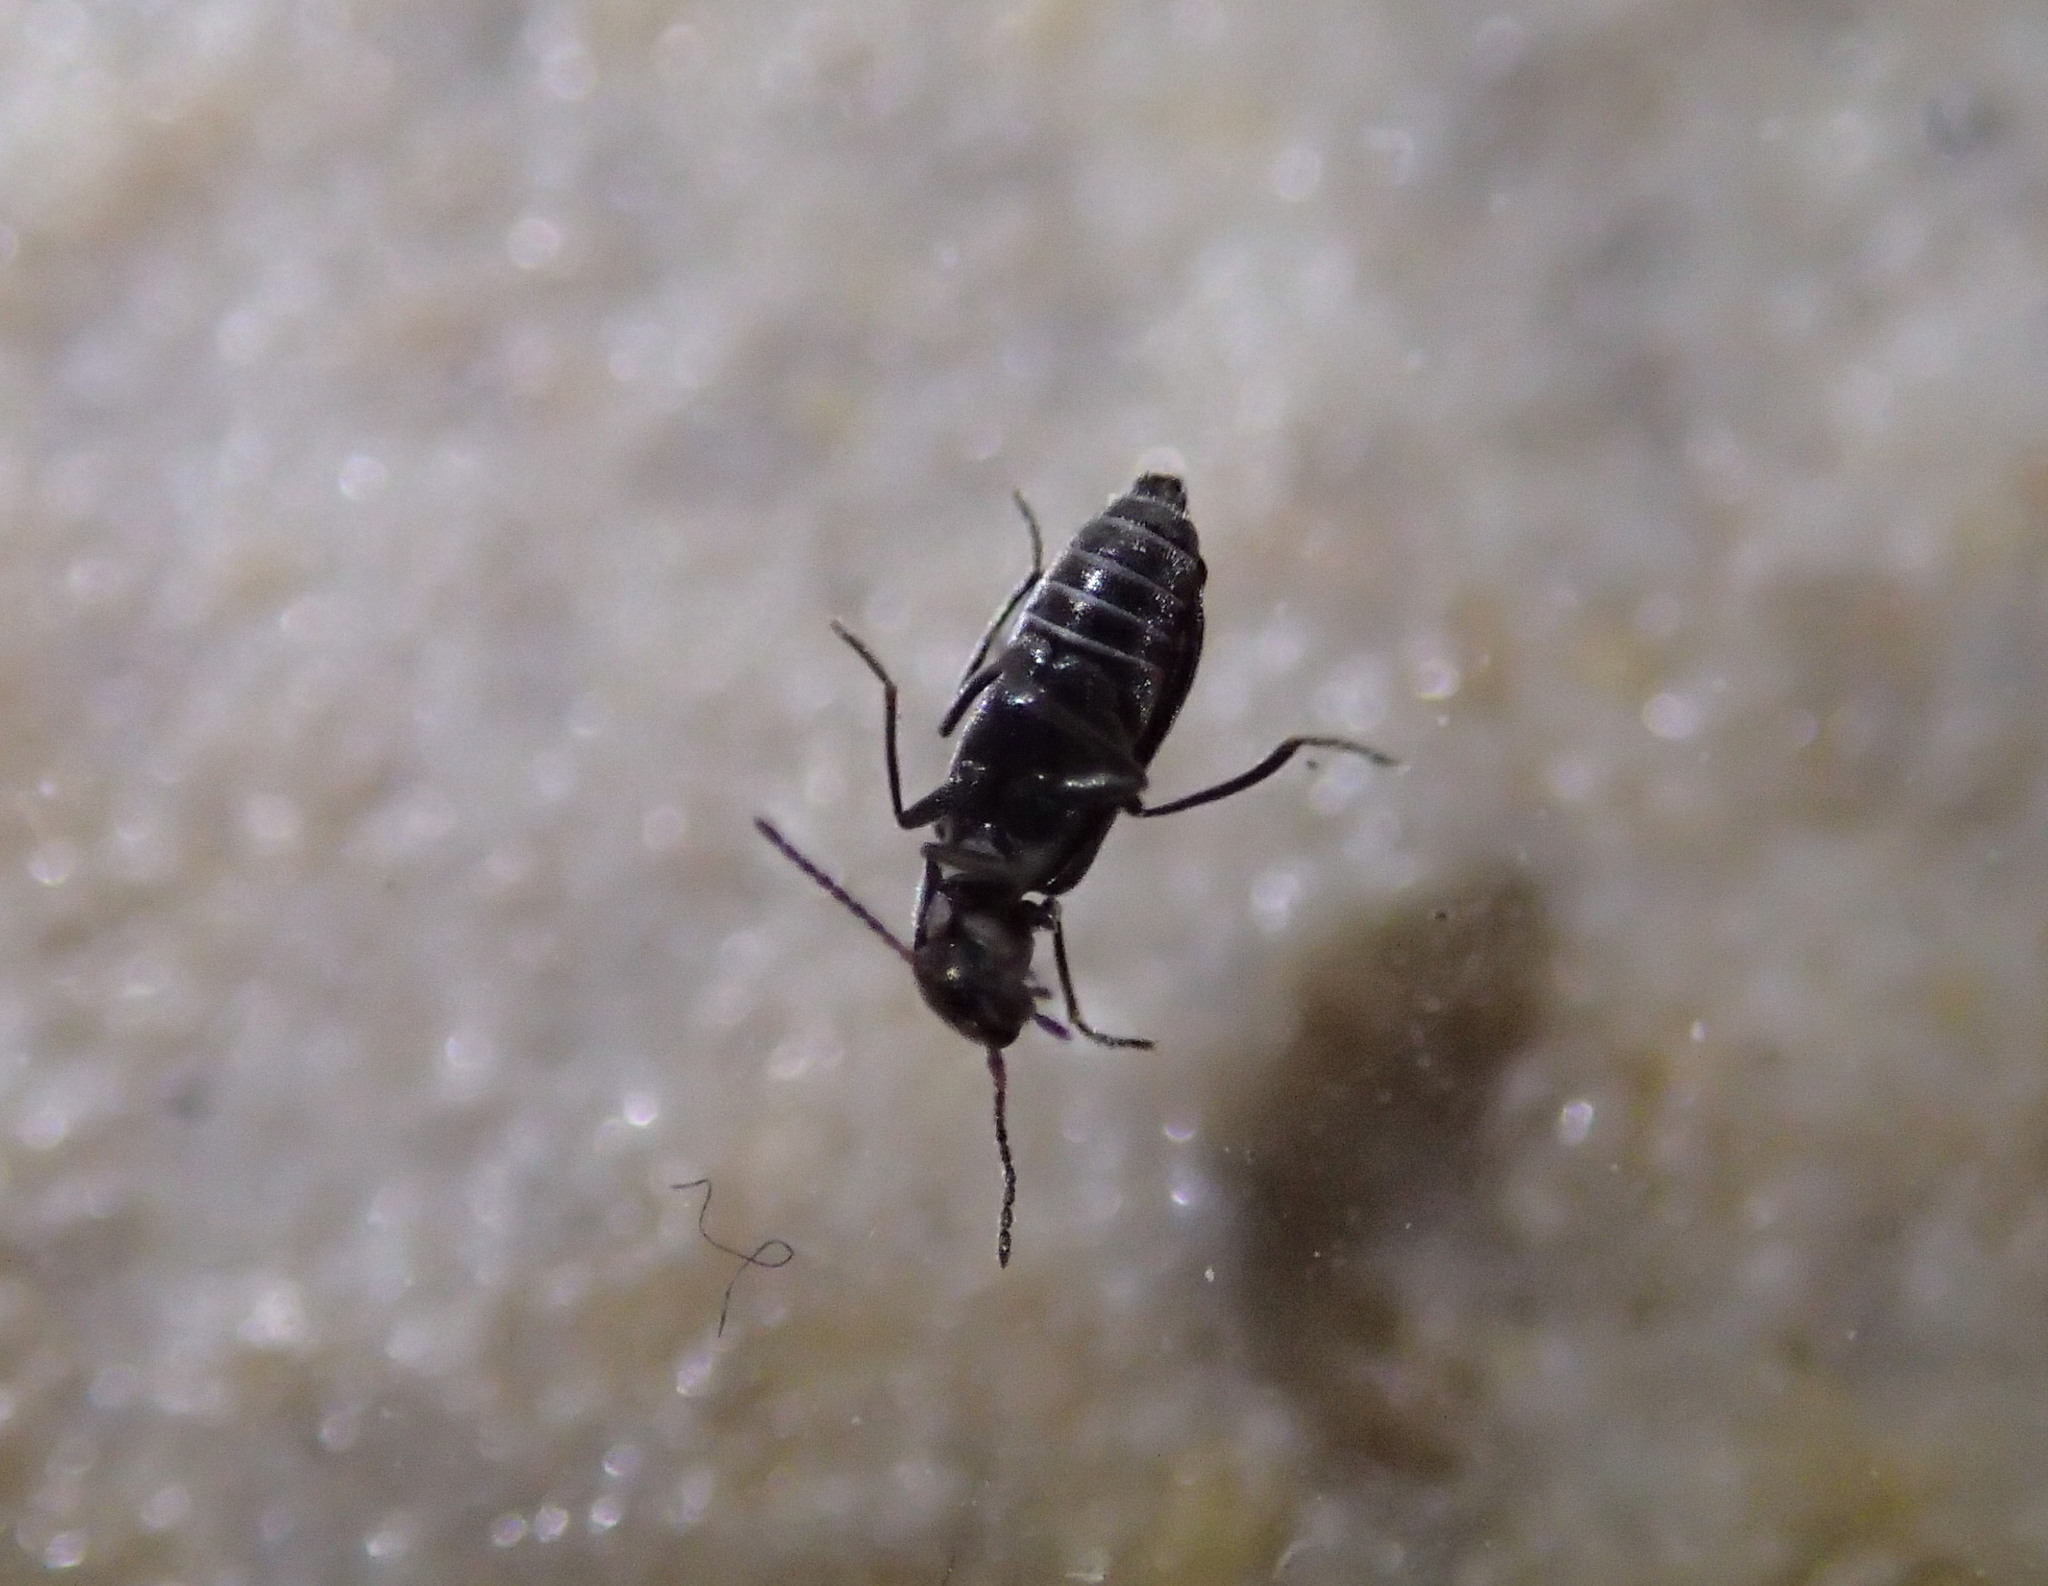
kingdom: Animalia
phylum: Arthropoda
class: Insecta
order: Coleoptera
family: Malachiidae
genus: Charopus
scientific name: Charopus docilis
